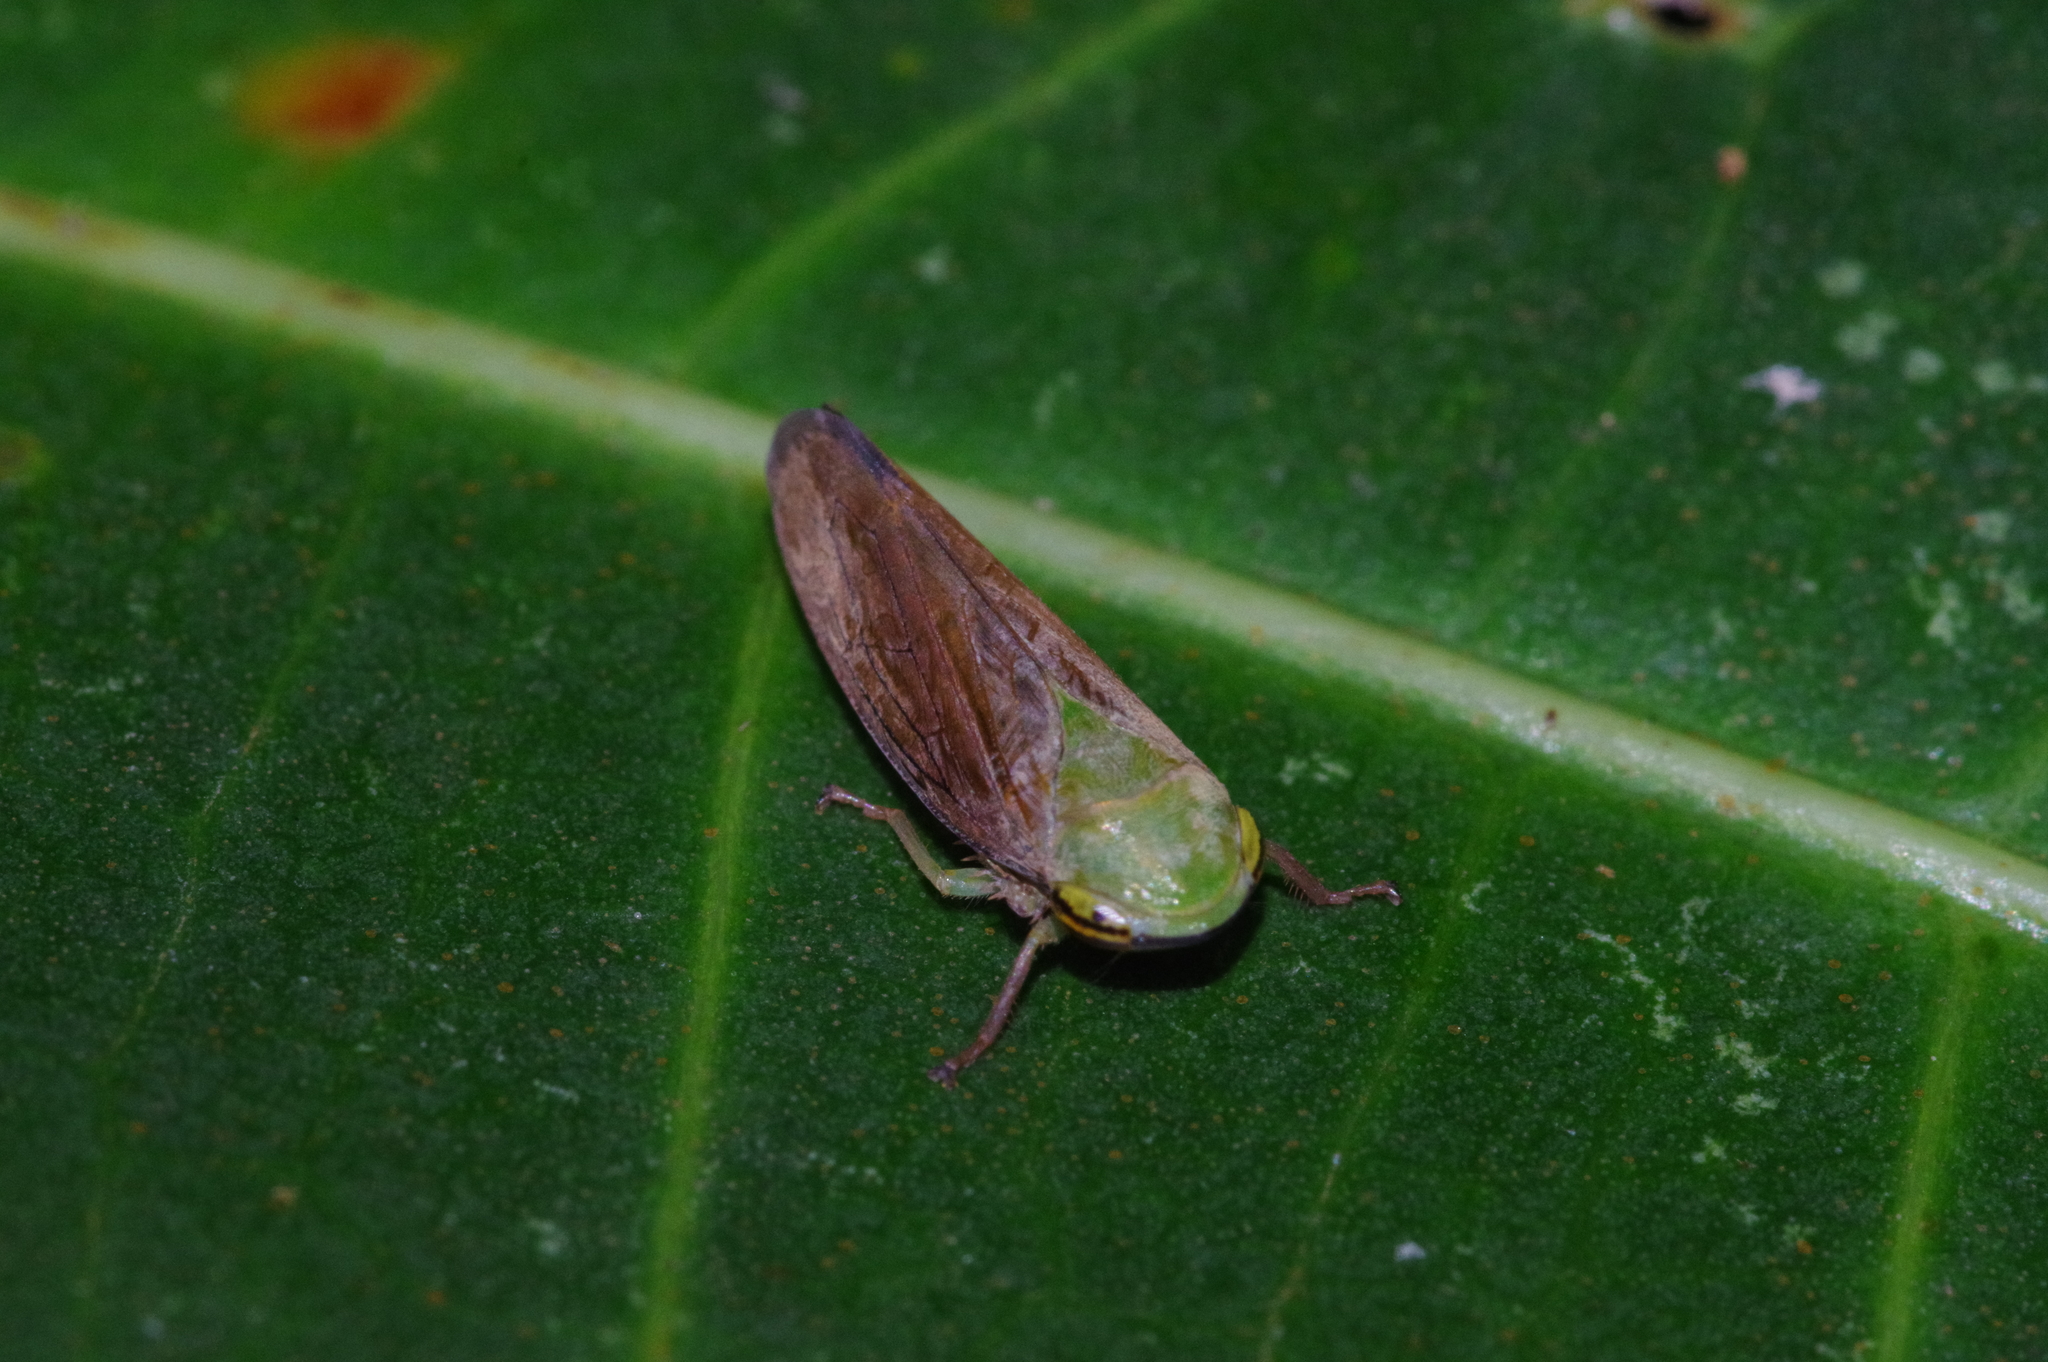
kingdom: Animalia
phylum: Arthropoda
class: Insecta
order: Hemiptera
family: Cicadellidae
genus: Tartessus
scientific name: Tartessus ferrugineus
